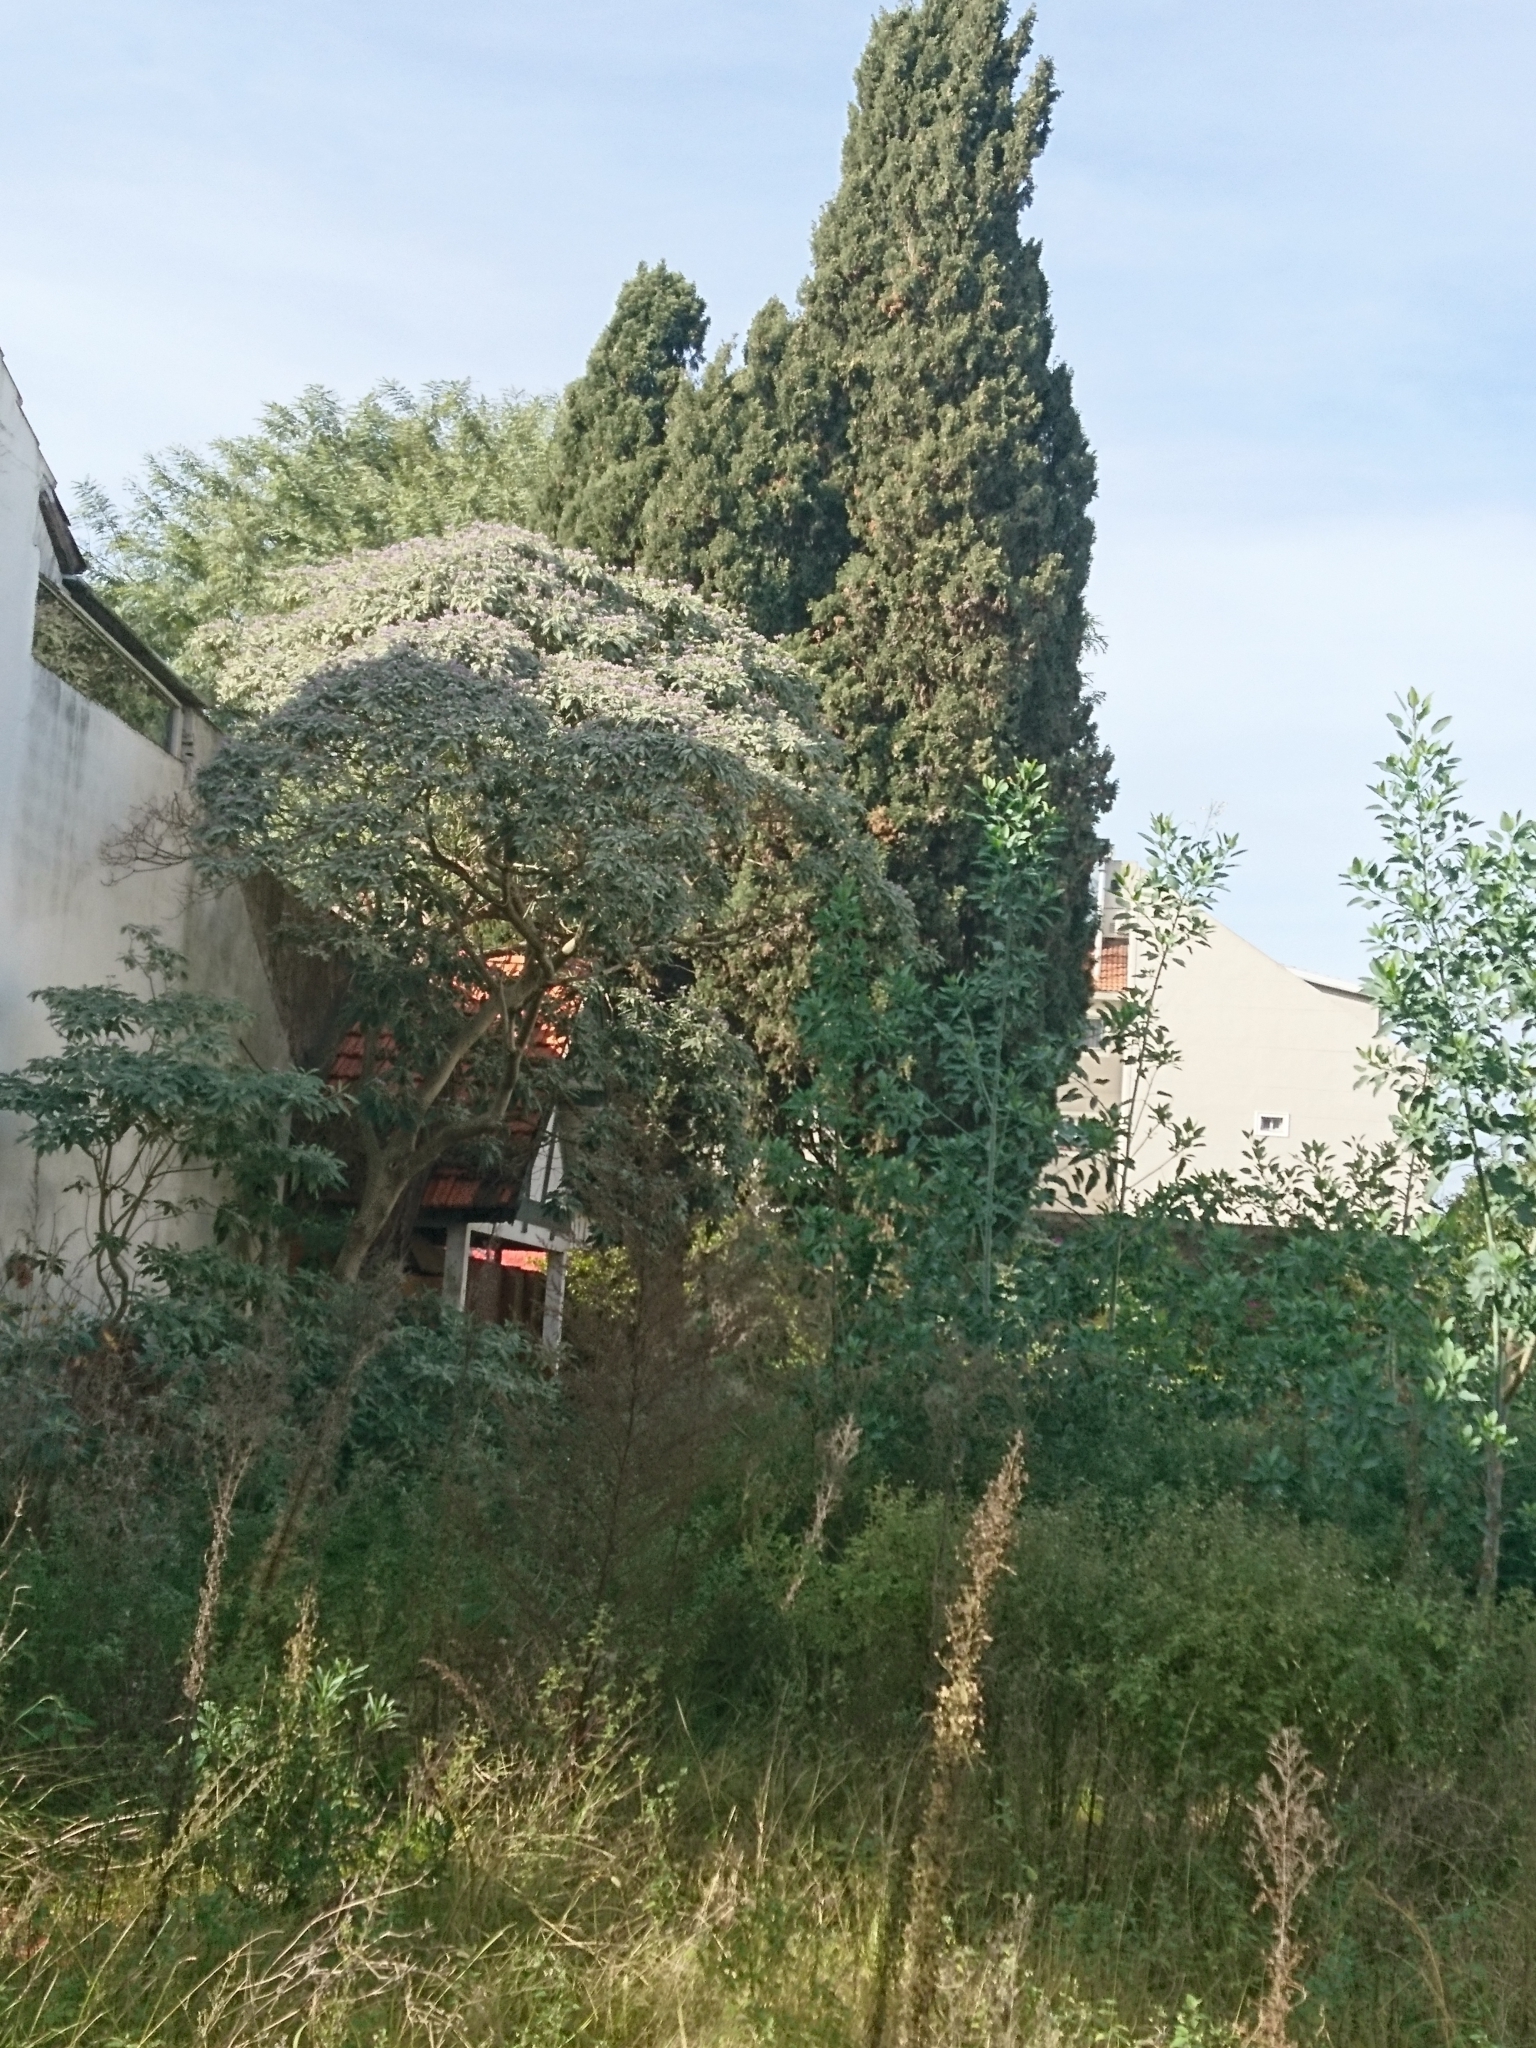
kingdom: Plantae
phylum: Tracheophyta
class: Magnoliopsida
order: Solanales
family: Solanaceae
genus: Solanum
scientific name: Solanum granulosoleprosum
